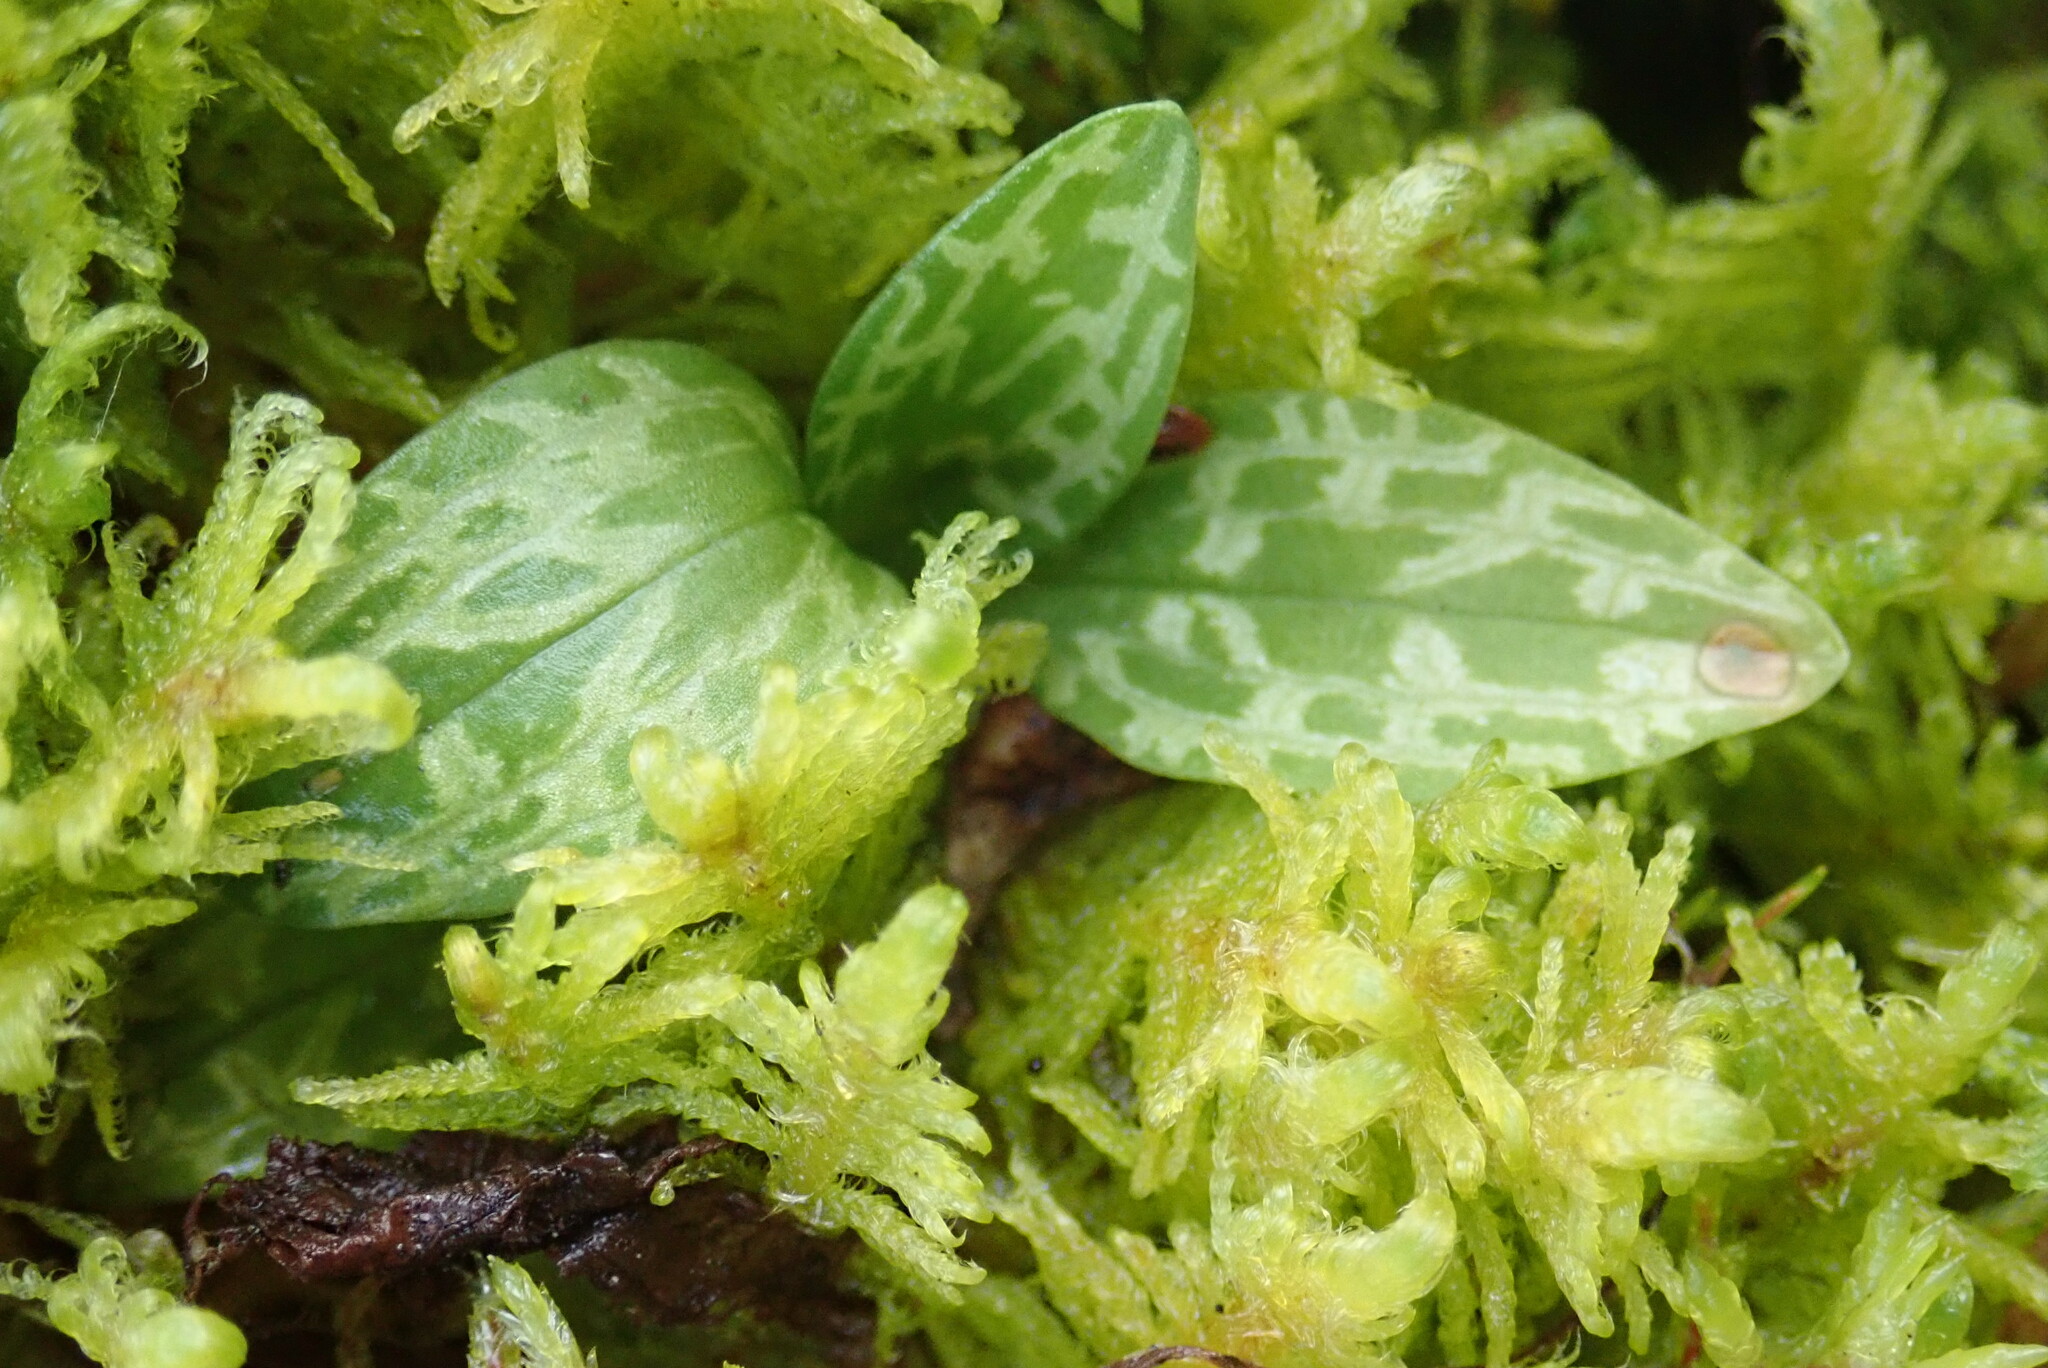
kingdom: Plantae
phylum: Tracheophyta
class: Liliopsida
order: Asparagales
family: Orchidaceae
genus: Goodyera
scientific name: Goodyera repens
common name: Creeping lady's-tresses
